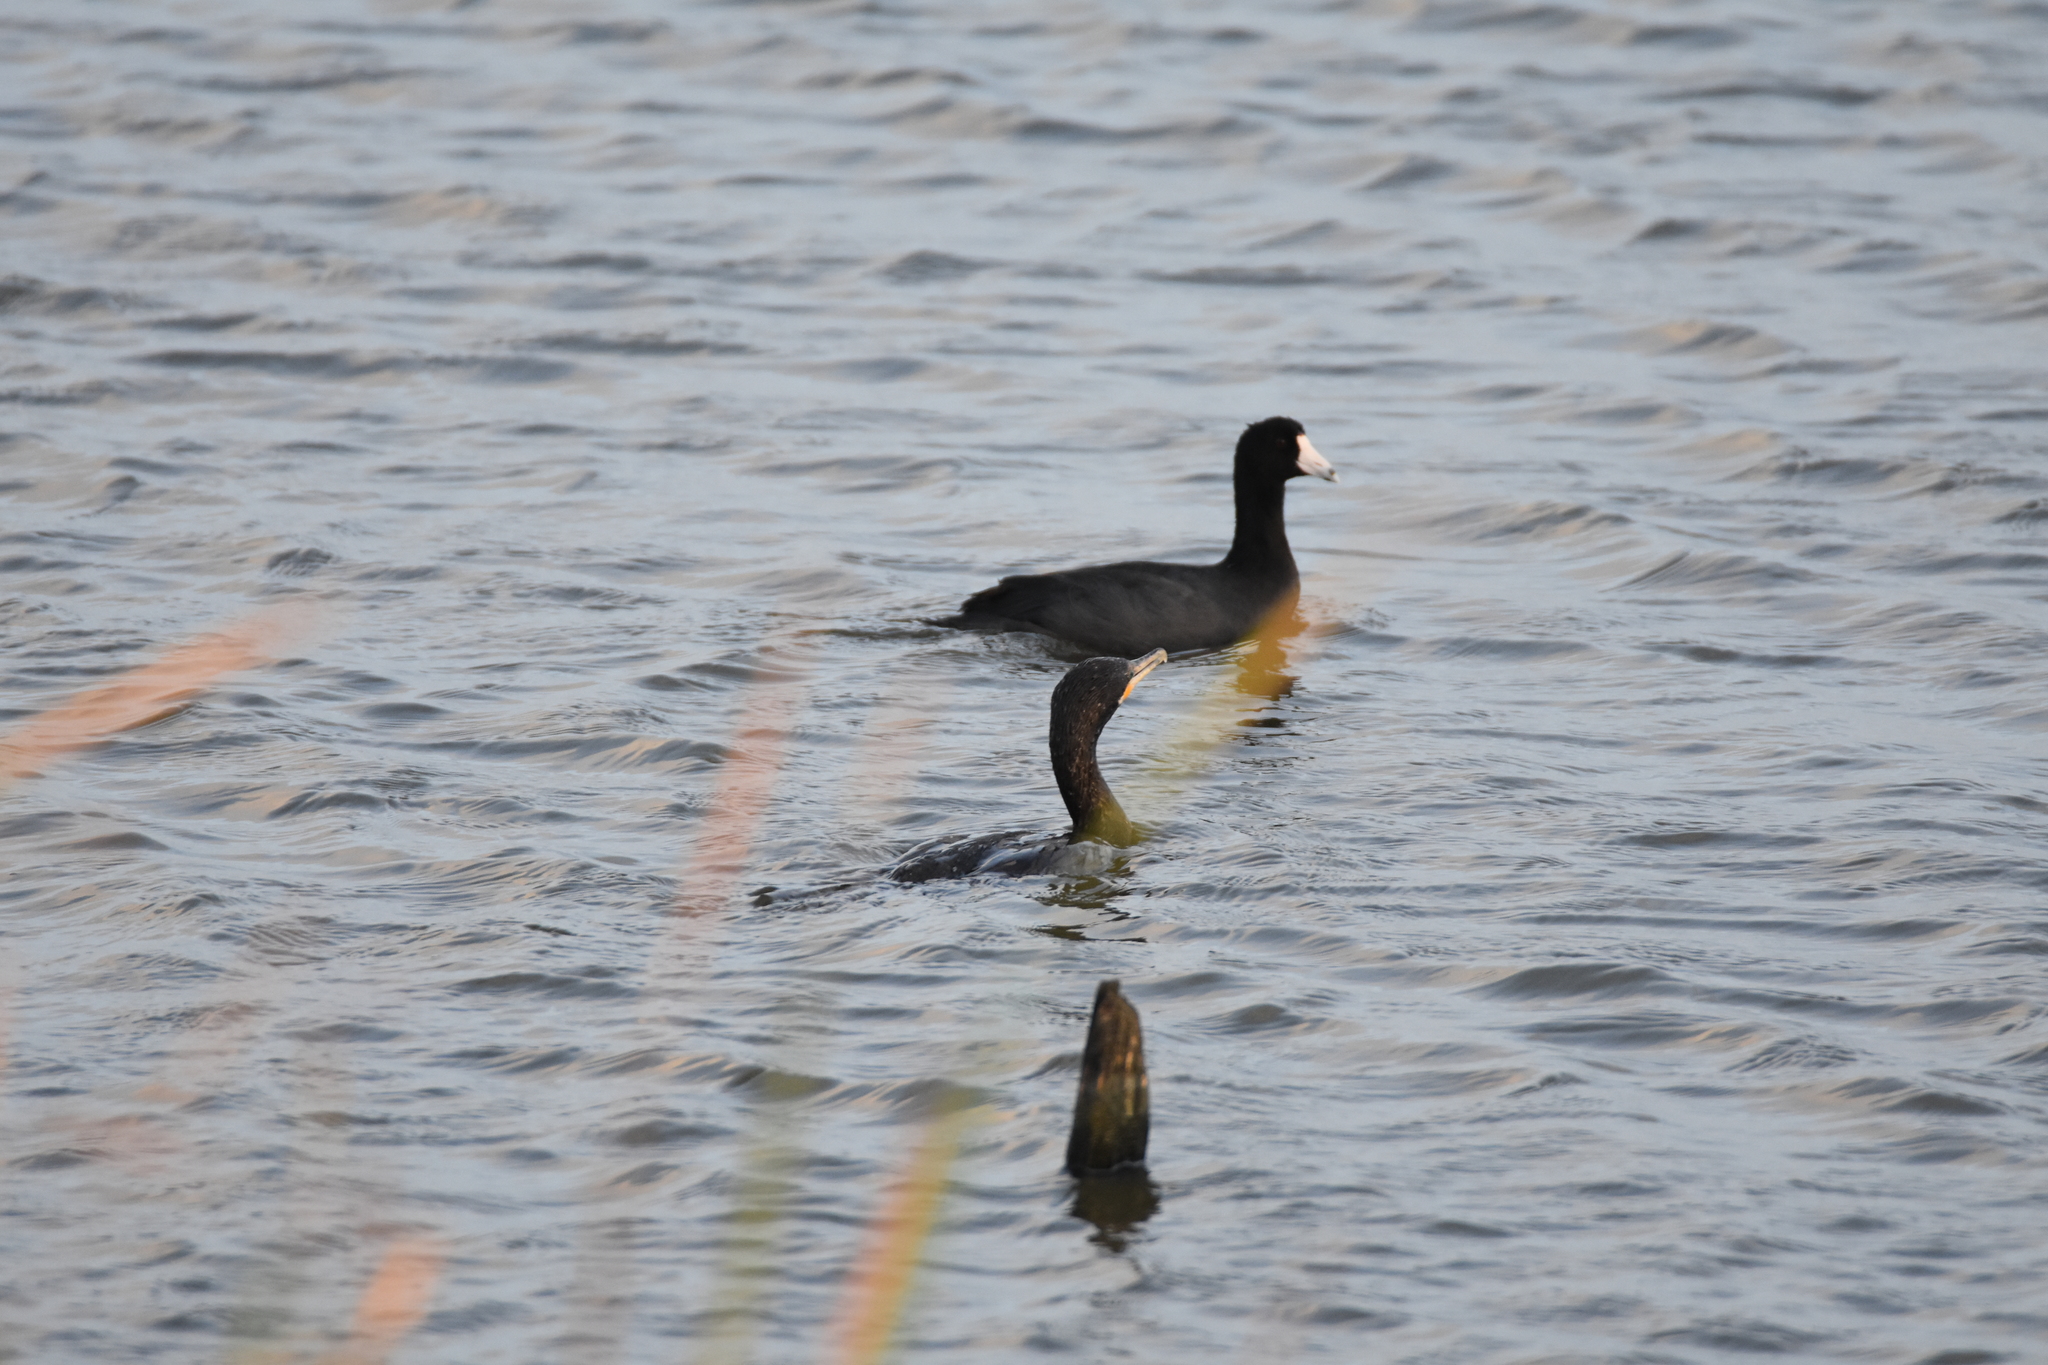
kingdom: Animalia
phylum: Chordata
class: Aves
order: Suliformes
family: Phalacrocoracidae
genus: Phalacrocorax
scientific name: Phalacrocorax brasilianus
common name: Neotropic cormorant
